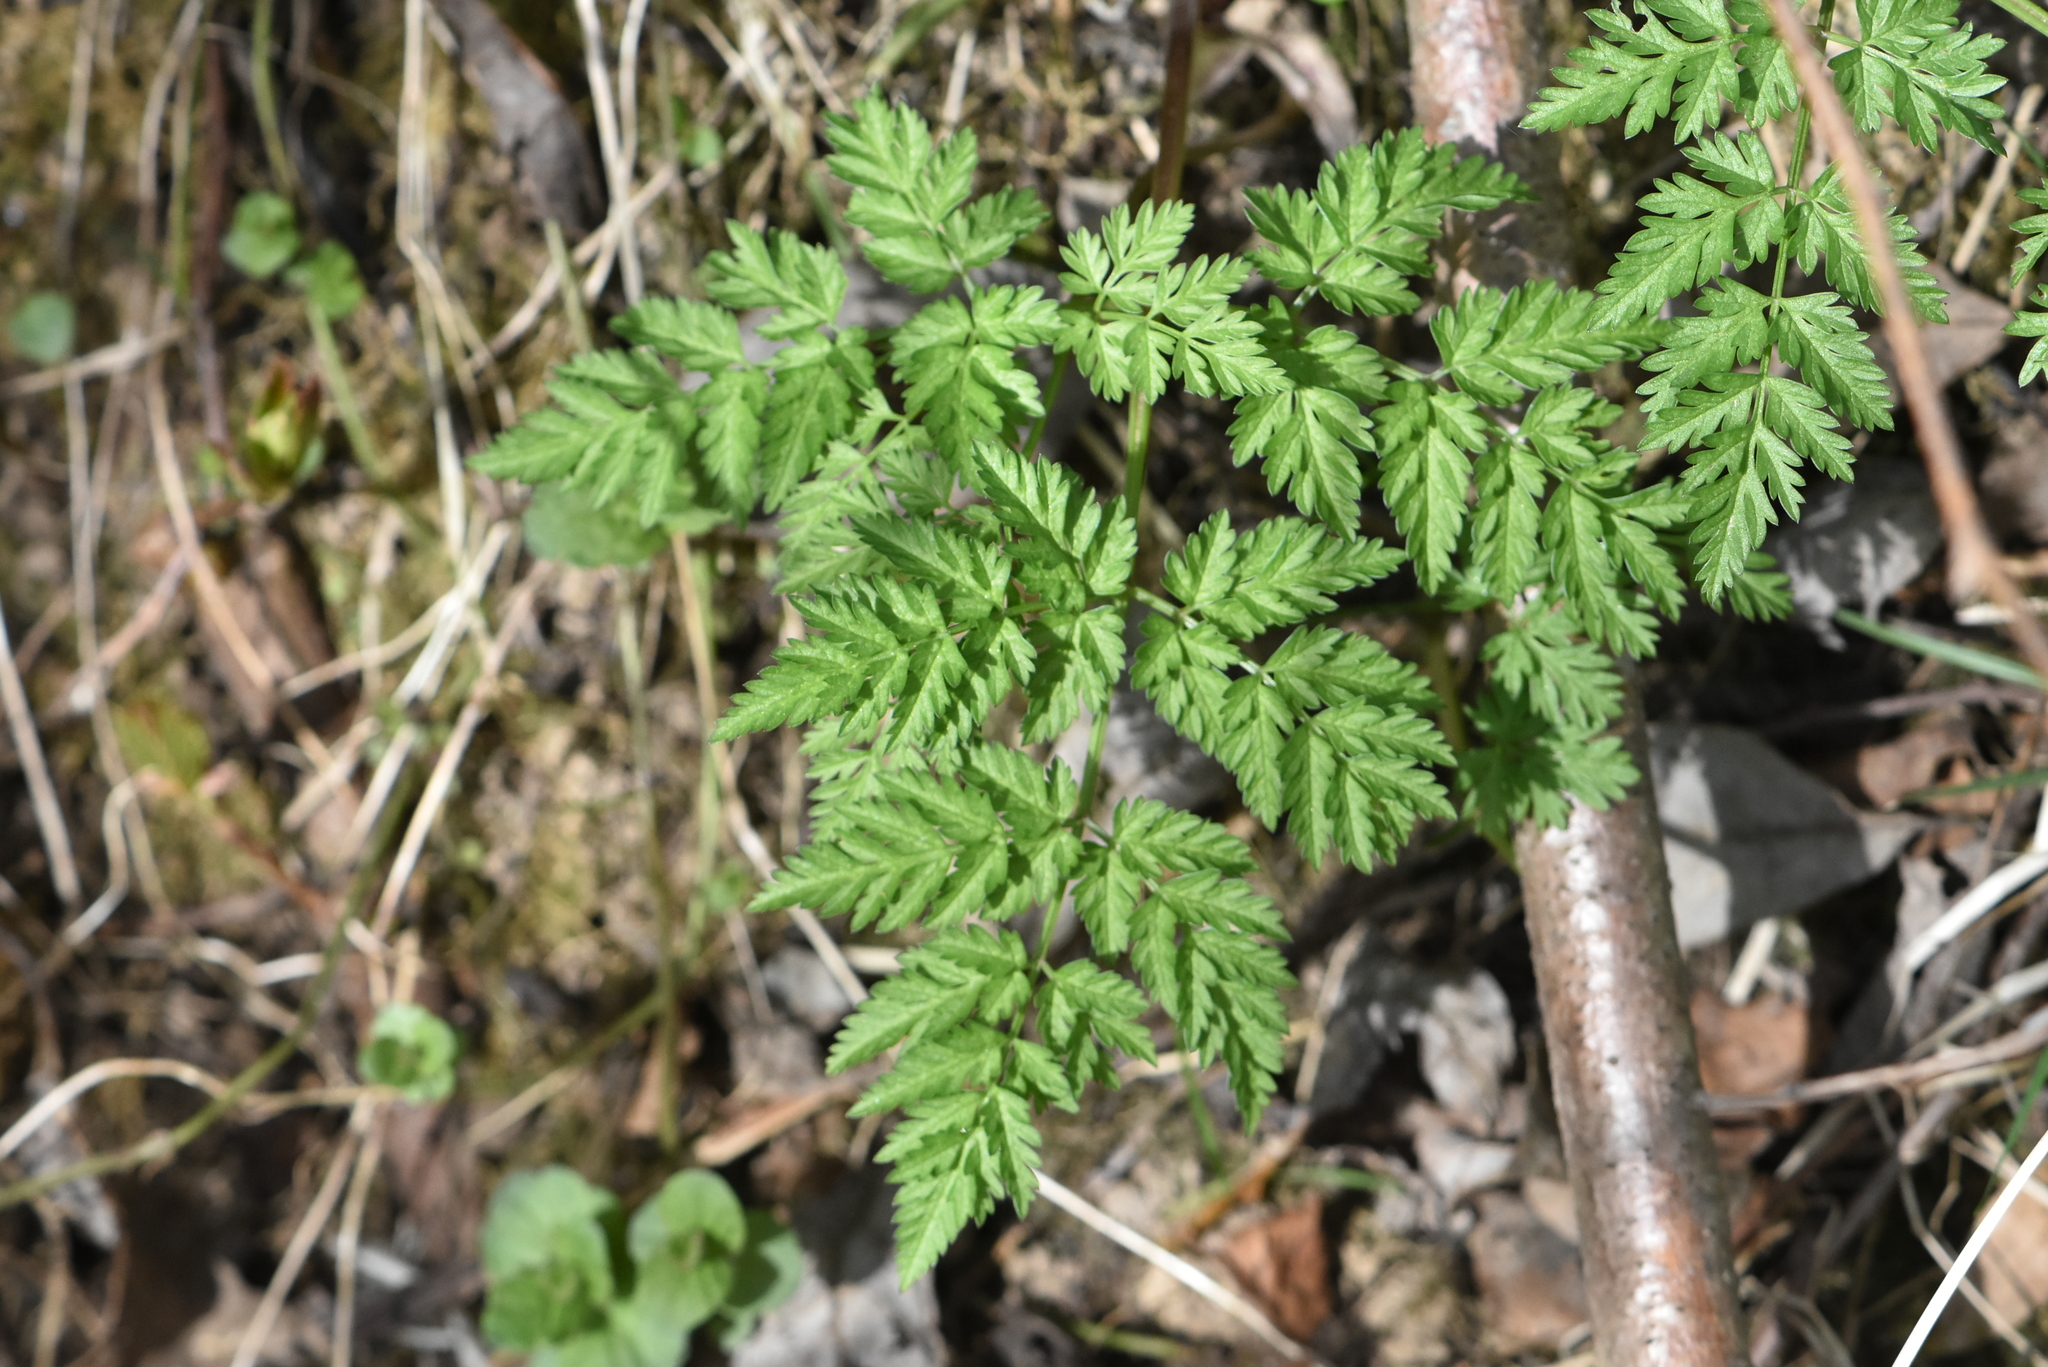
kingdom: Plantae
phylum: Tracheophyta
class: Magnoliopsida
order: Apiales
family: Apiaceae
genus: Anthriscus
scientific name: Anthriscus sylvestris
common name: Cow parsley
